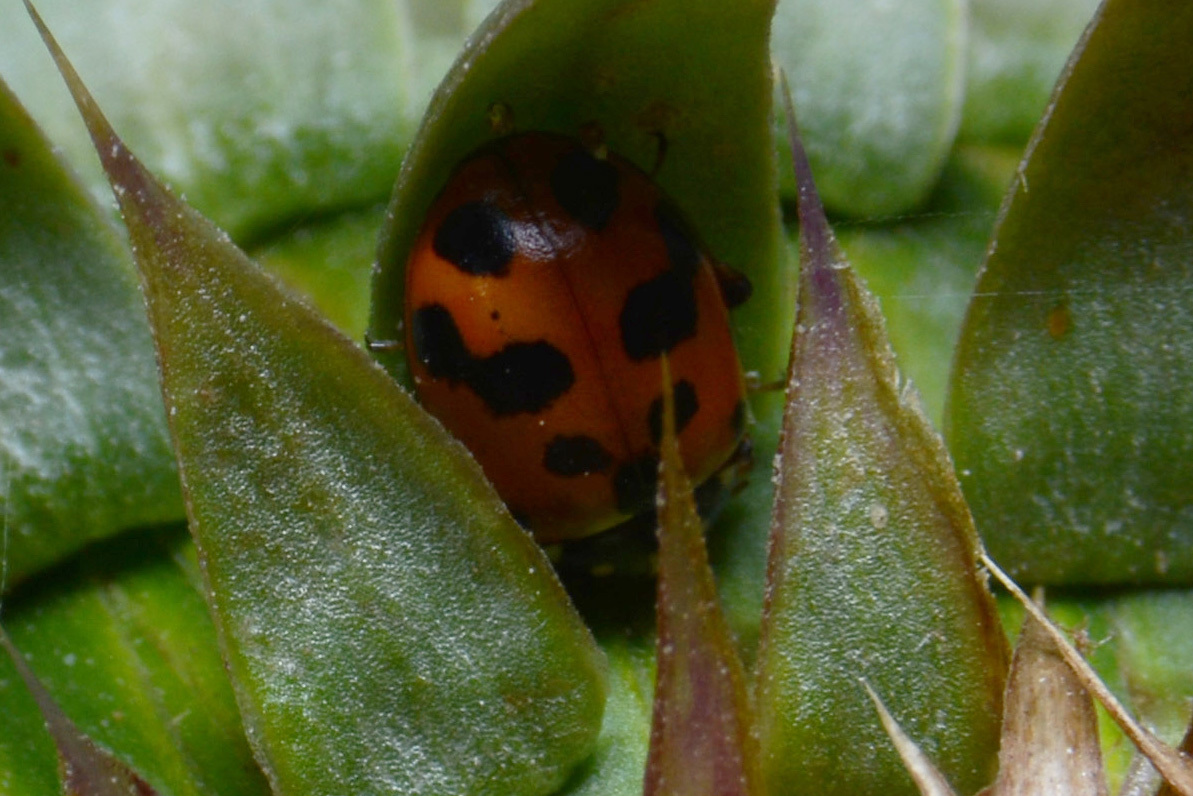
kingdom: Animalia
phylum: Arthropoda
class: Insecta
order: Coleoptera
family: Coccinellidae
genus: Hippodamia
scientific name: Hippodamia variegata
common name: Ladybird beetle
